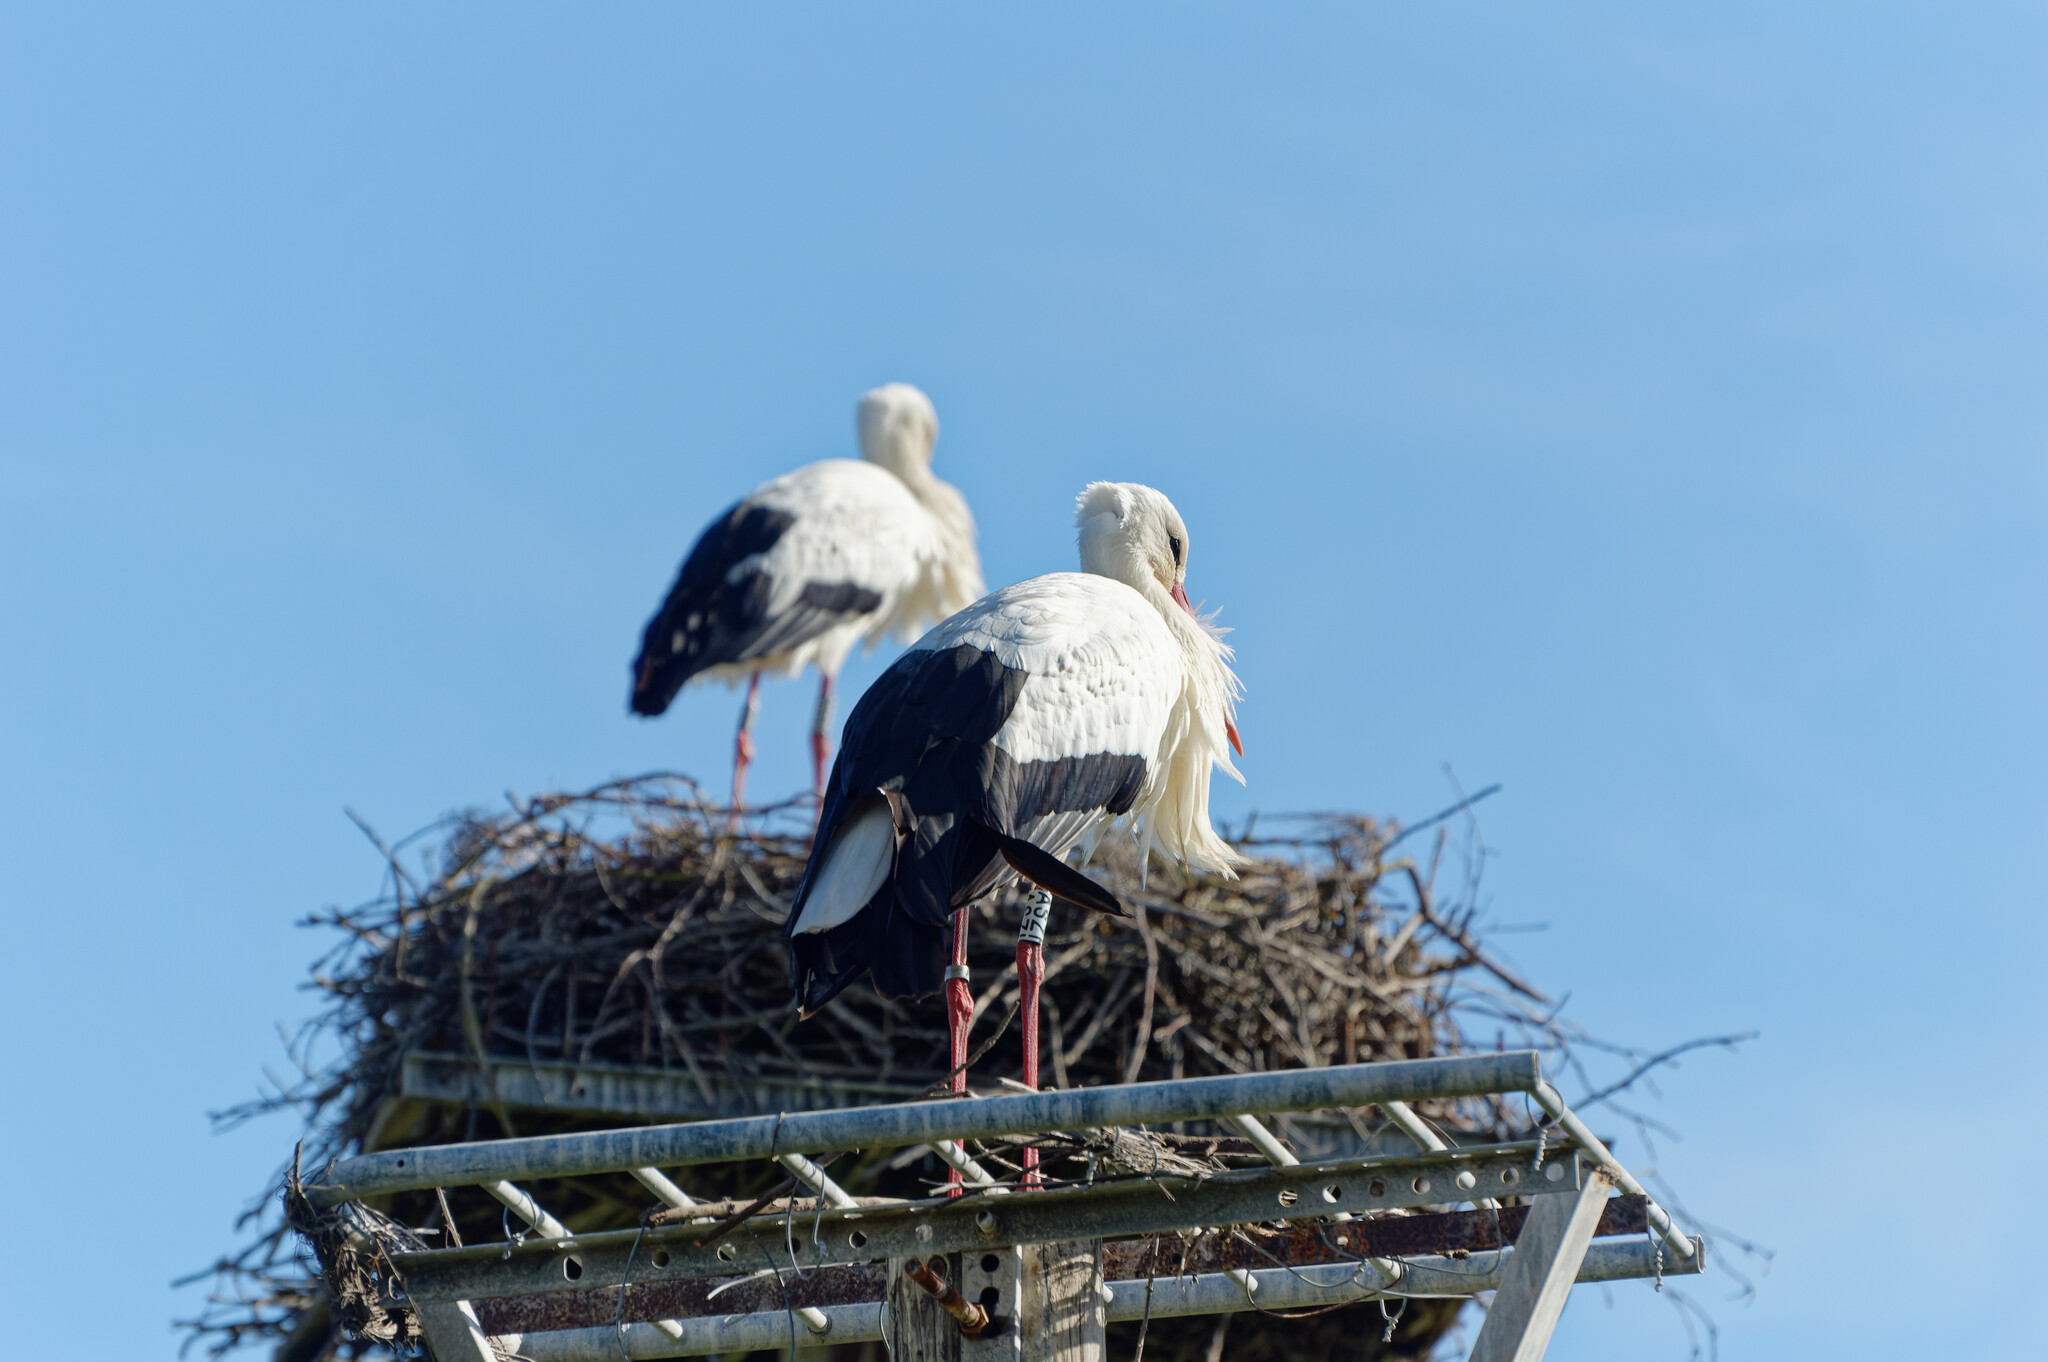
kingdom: Animalia
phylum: Chordata
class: Aves
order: Ciconiiformes
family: Ciconiidae
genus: Ciconia
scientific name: Ciconia ciconia
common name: White stork
